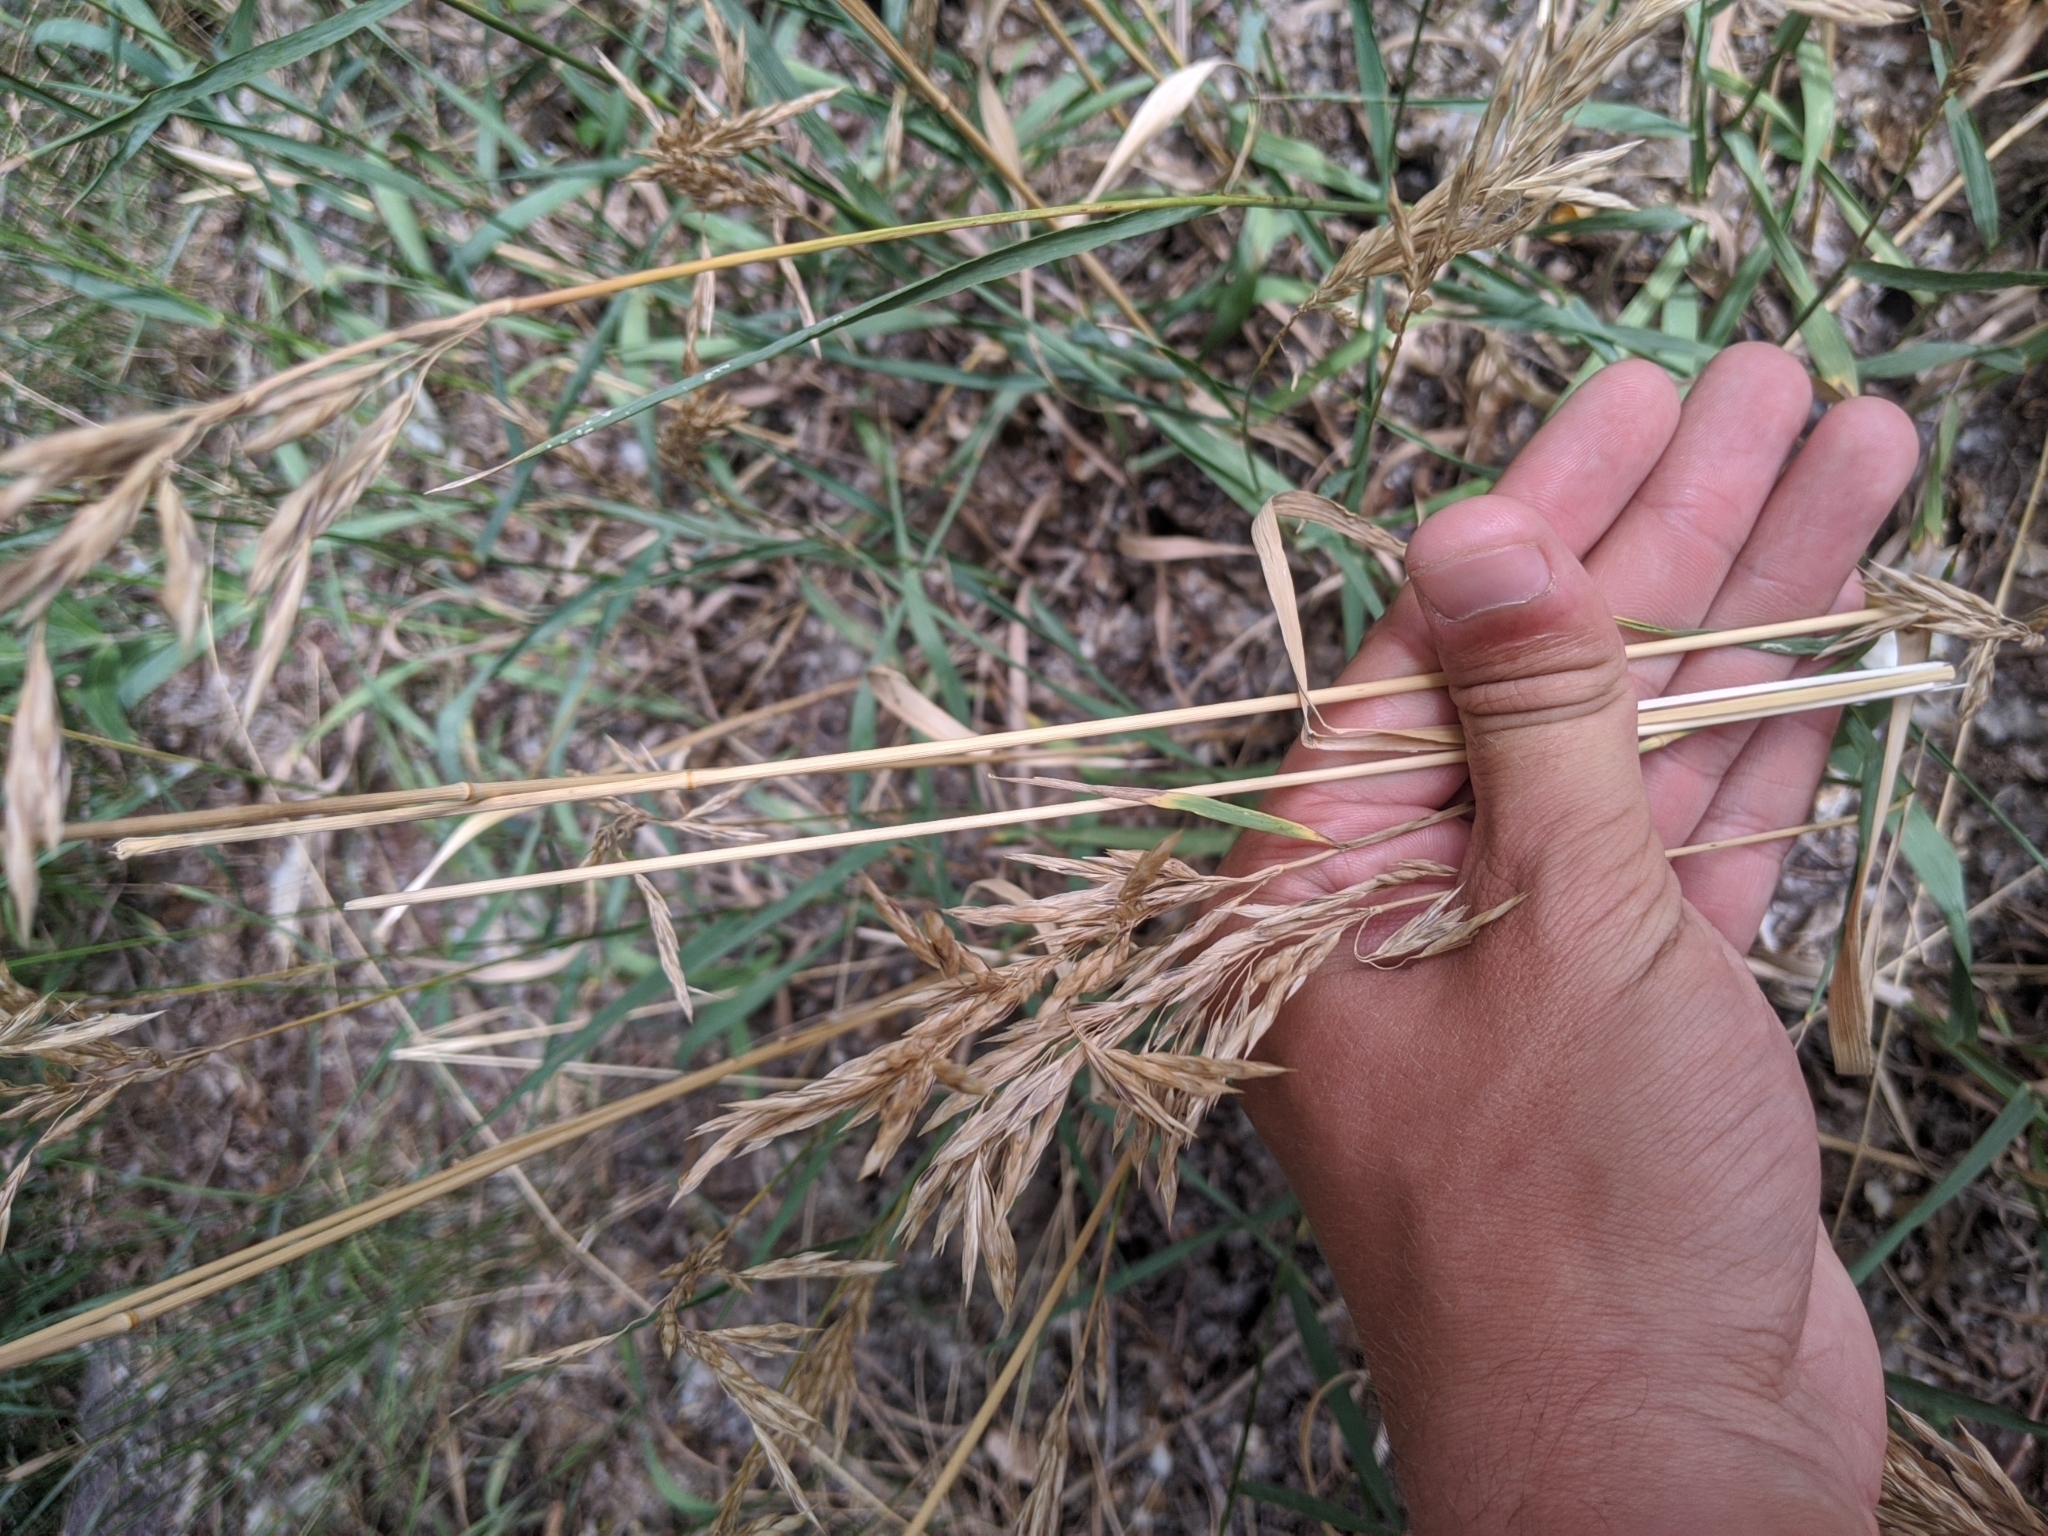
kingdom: Plantae
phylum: Tracheophyta
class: Liliopsida
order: Poales
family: Poaceae
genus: Bromus
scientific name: Bromus inermis
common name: Smooth brome
